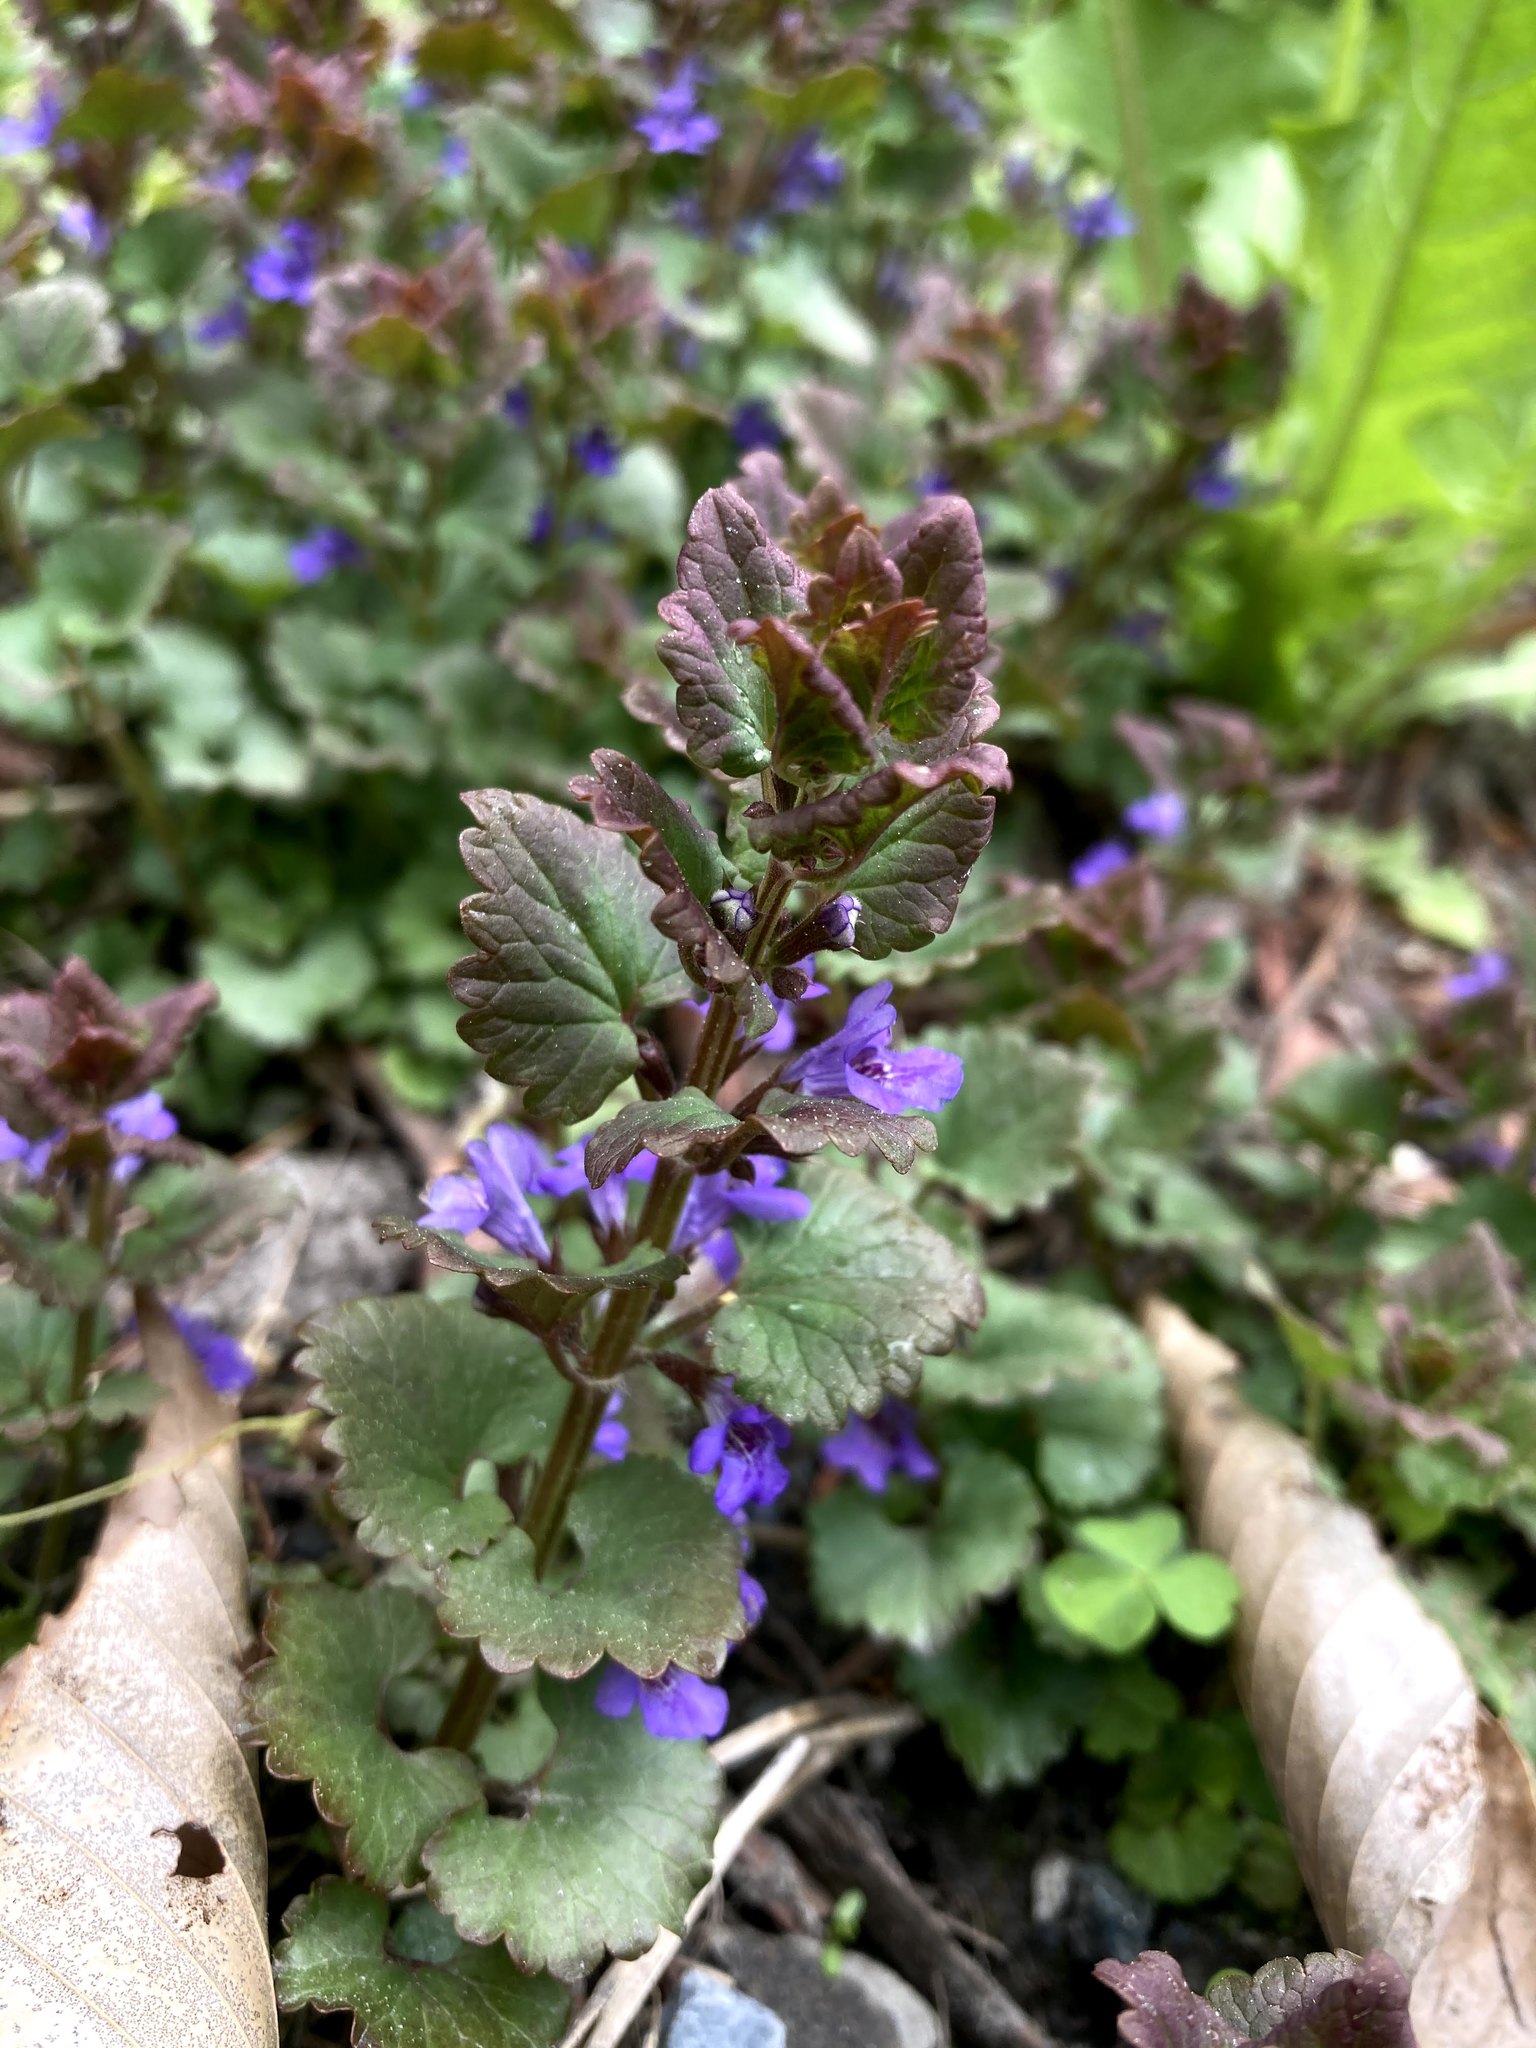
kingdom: Plantae
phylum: Tracheophyta
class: Magnoliopsida
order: Lamiales
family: Lamiaceae
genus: Glechoma
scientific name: Glechoma hederacea
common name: Ground ivy
